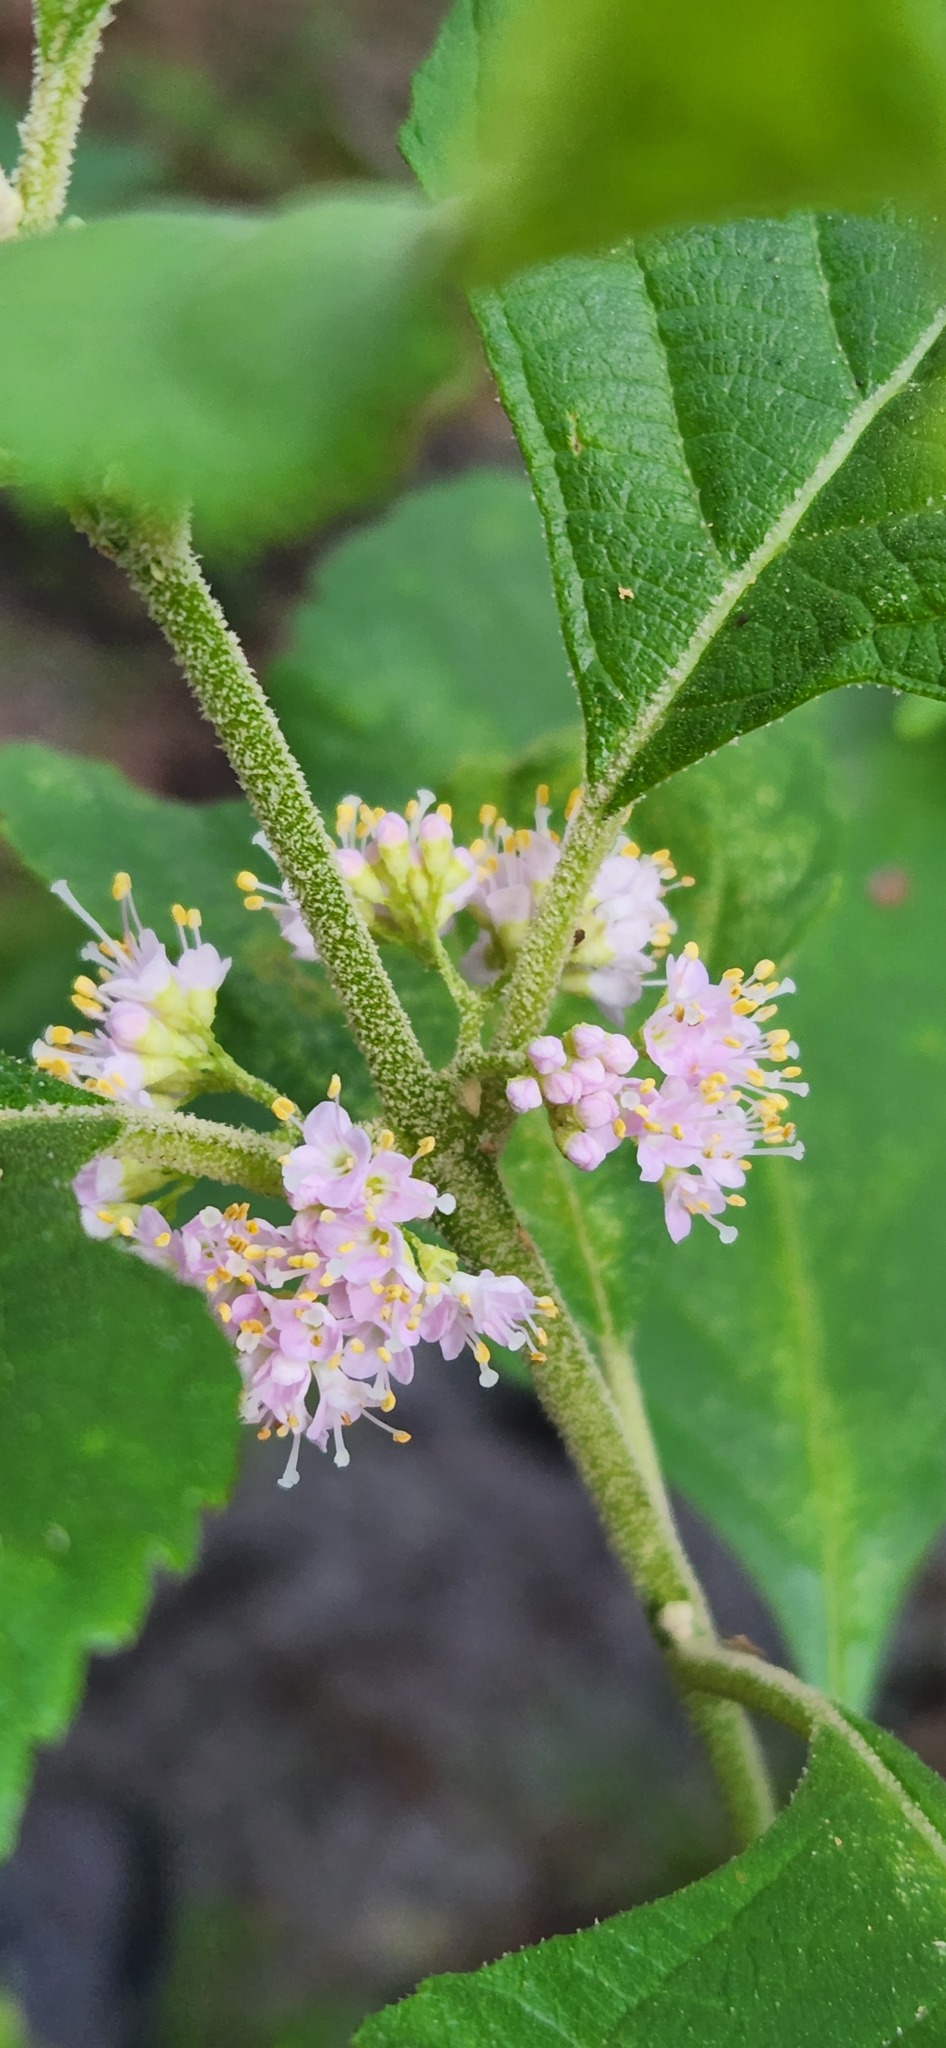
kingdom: Plantae
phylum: Tracheophyta
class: Magnoliopsida
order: Lamiales
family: Lamiaceae
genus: Callicarpa
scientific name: Callicarpa americana
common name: American beautyberry
